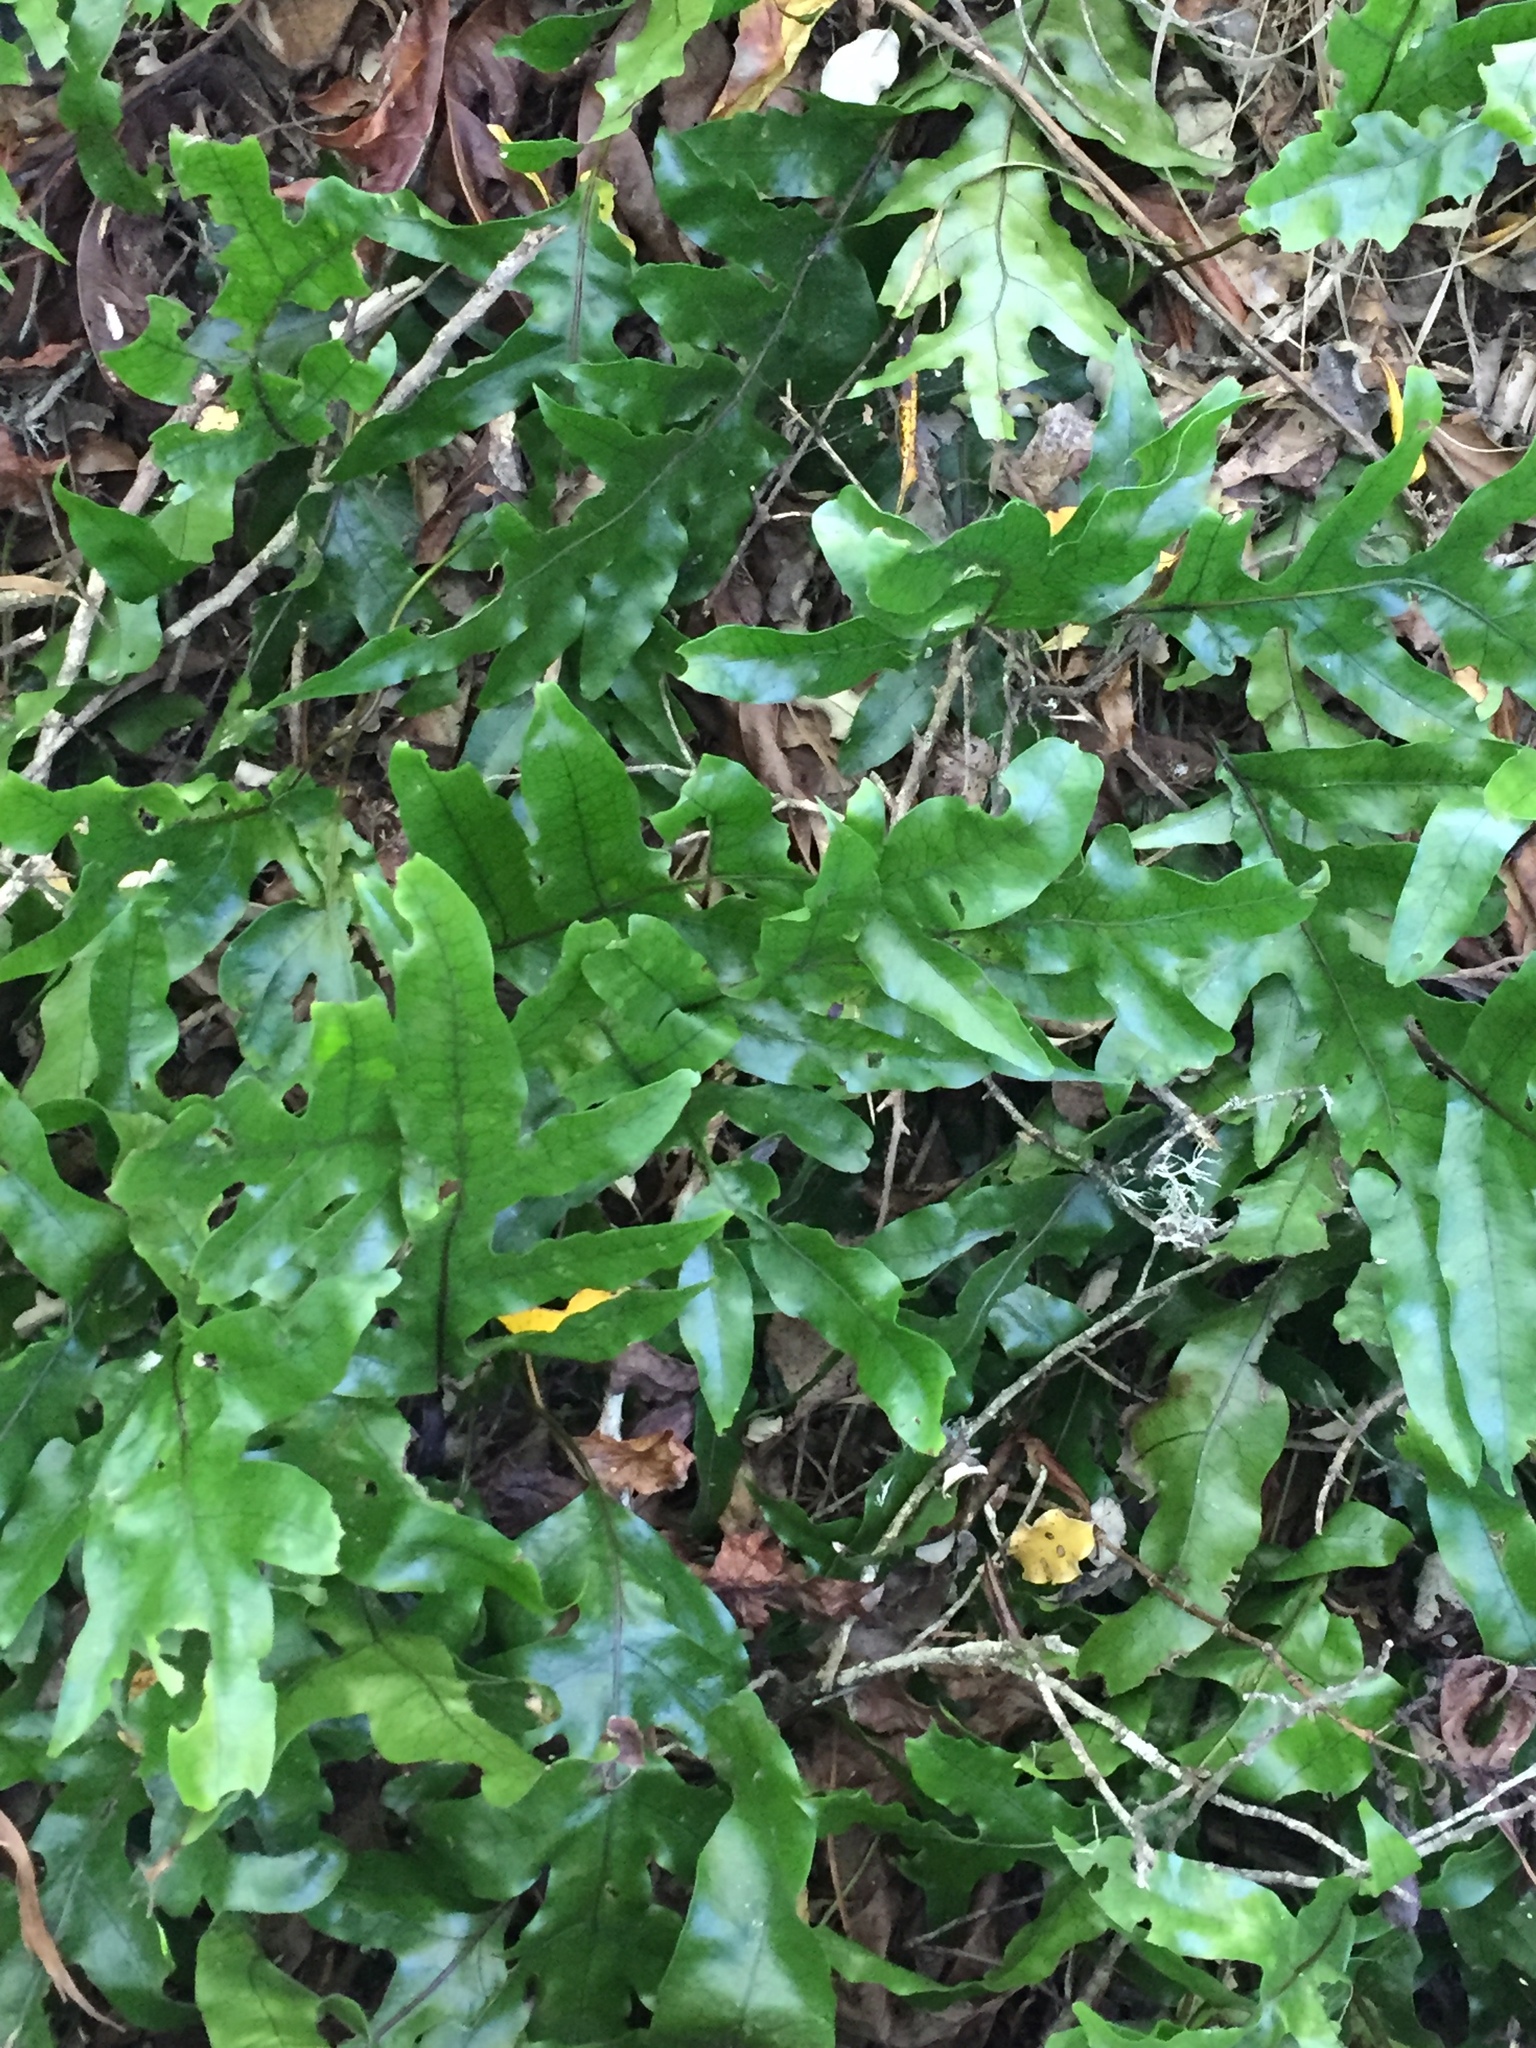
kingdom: Plantae
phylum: Tracheophyta
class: Polypodiopsida
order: Polypodiales
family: Polypodiaceae
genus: Lecanopteris
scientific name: Lecanopteris pustulata
